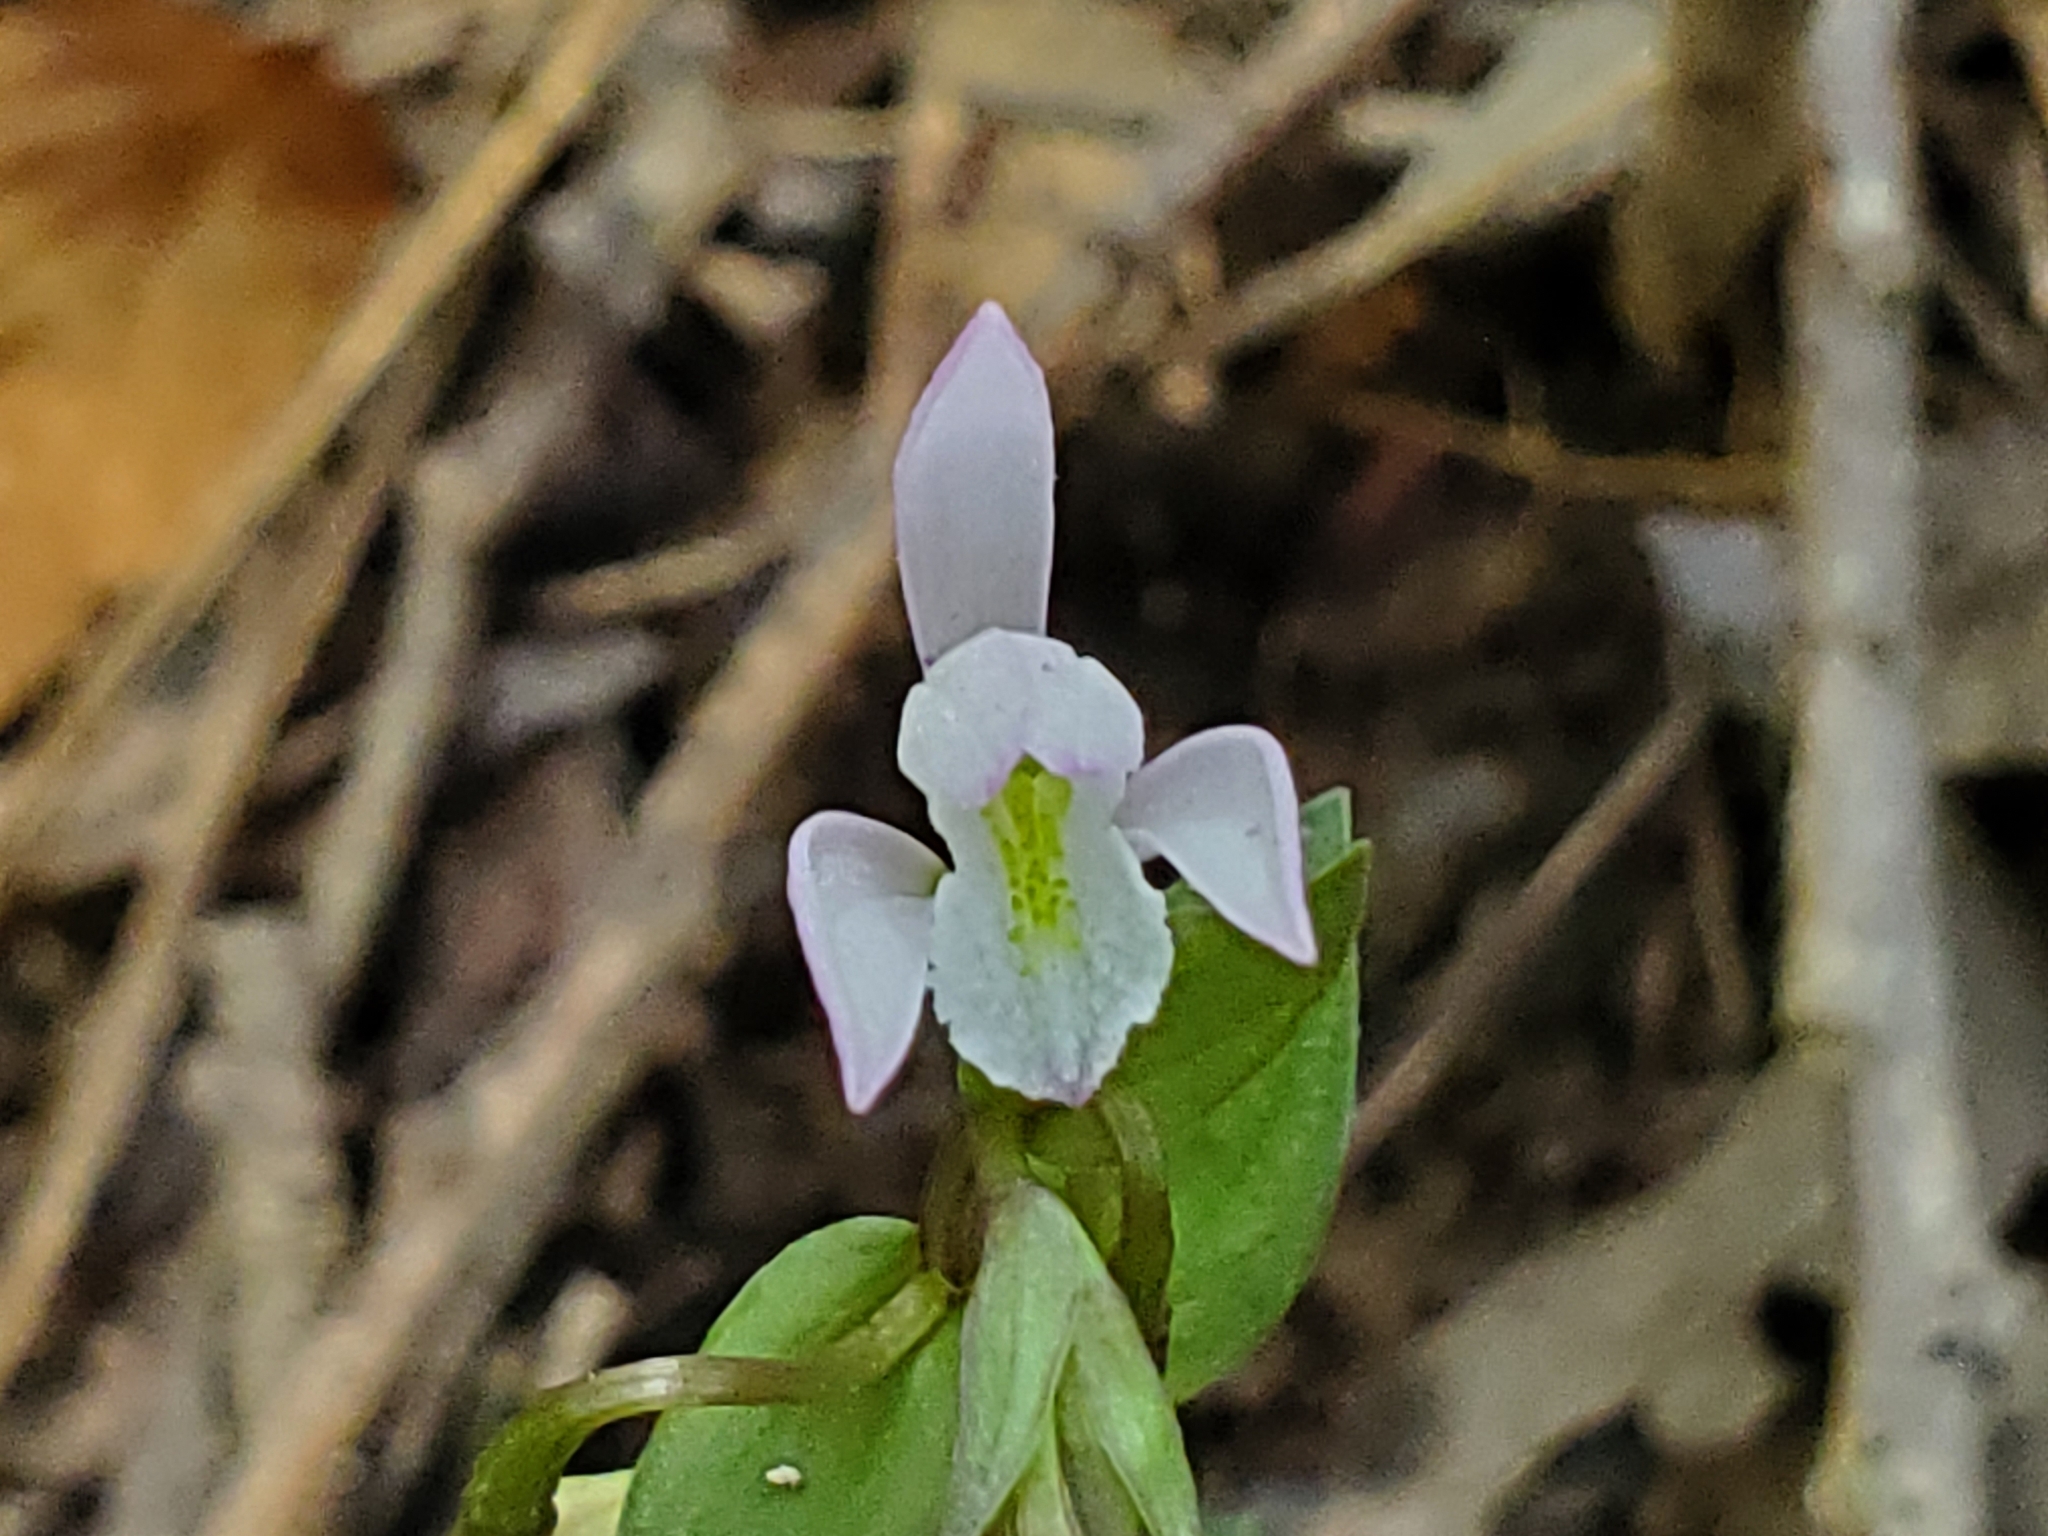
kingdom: Plantae
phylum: Tracheophyta
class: Liliopsida
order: Asparagales
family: Orchidaceae
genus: Triphora
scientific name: Triphora trianthophoros
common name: Three birds orchid
